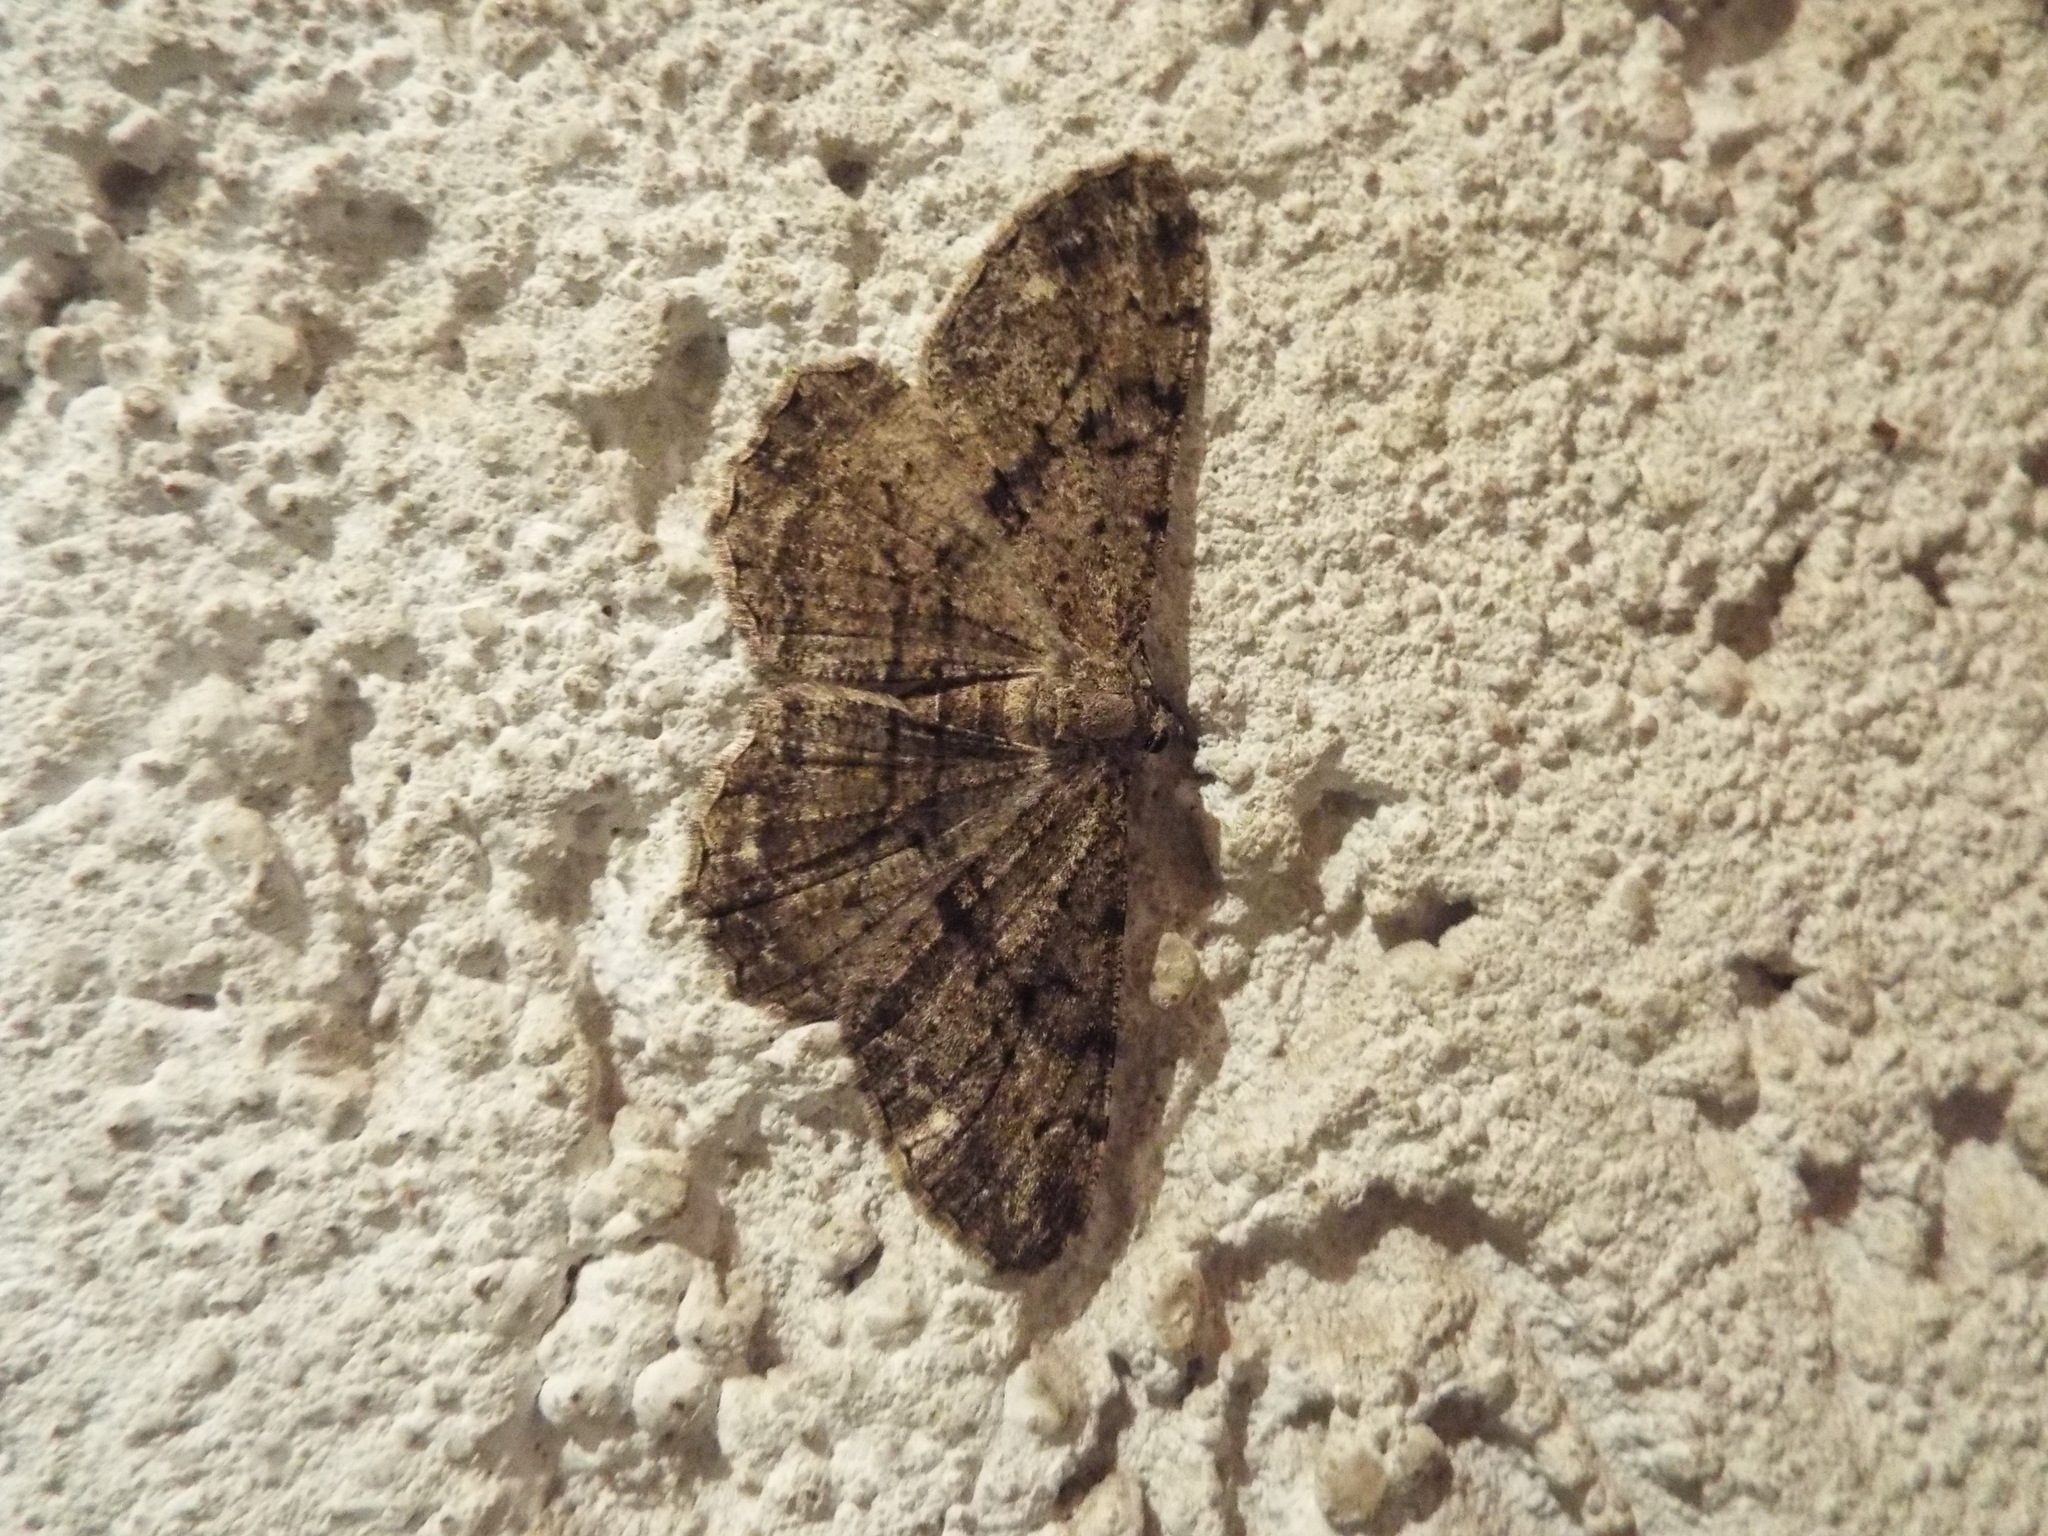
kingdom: Animalia
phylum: Arthropoda
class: Insecta
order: Lepidoptera
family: Geometridae
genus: Peribatodes
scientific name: Peribatodes rhomboidaria
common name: Willow beauty
